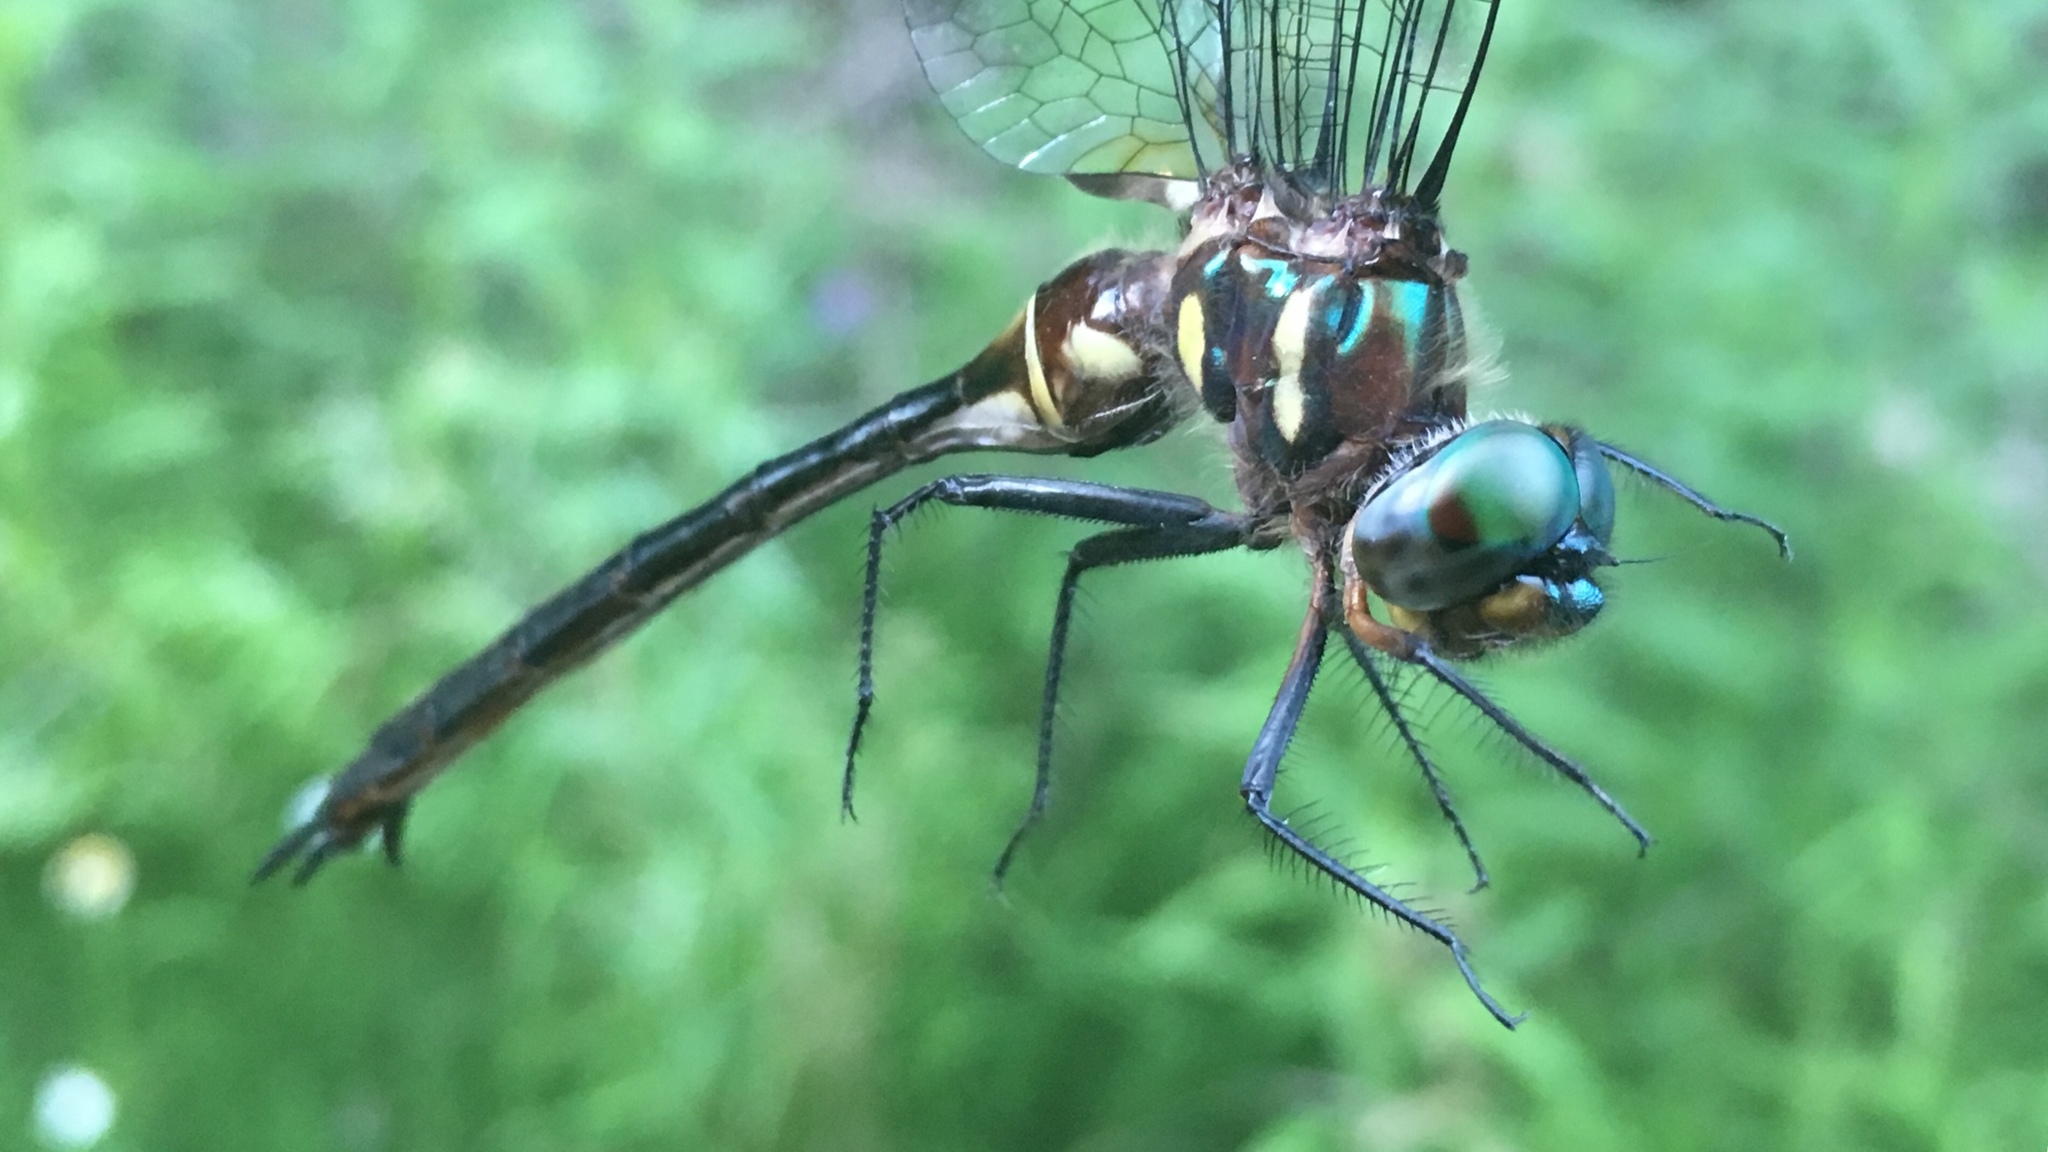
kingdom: Animalia
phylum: Arthropoda
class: Insecta
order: Odonata
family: Corduliidae
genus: Somatochlora
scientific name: Somatochlora tenebrosa
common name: Clamp-tipped emerald
